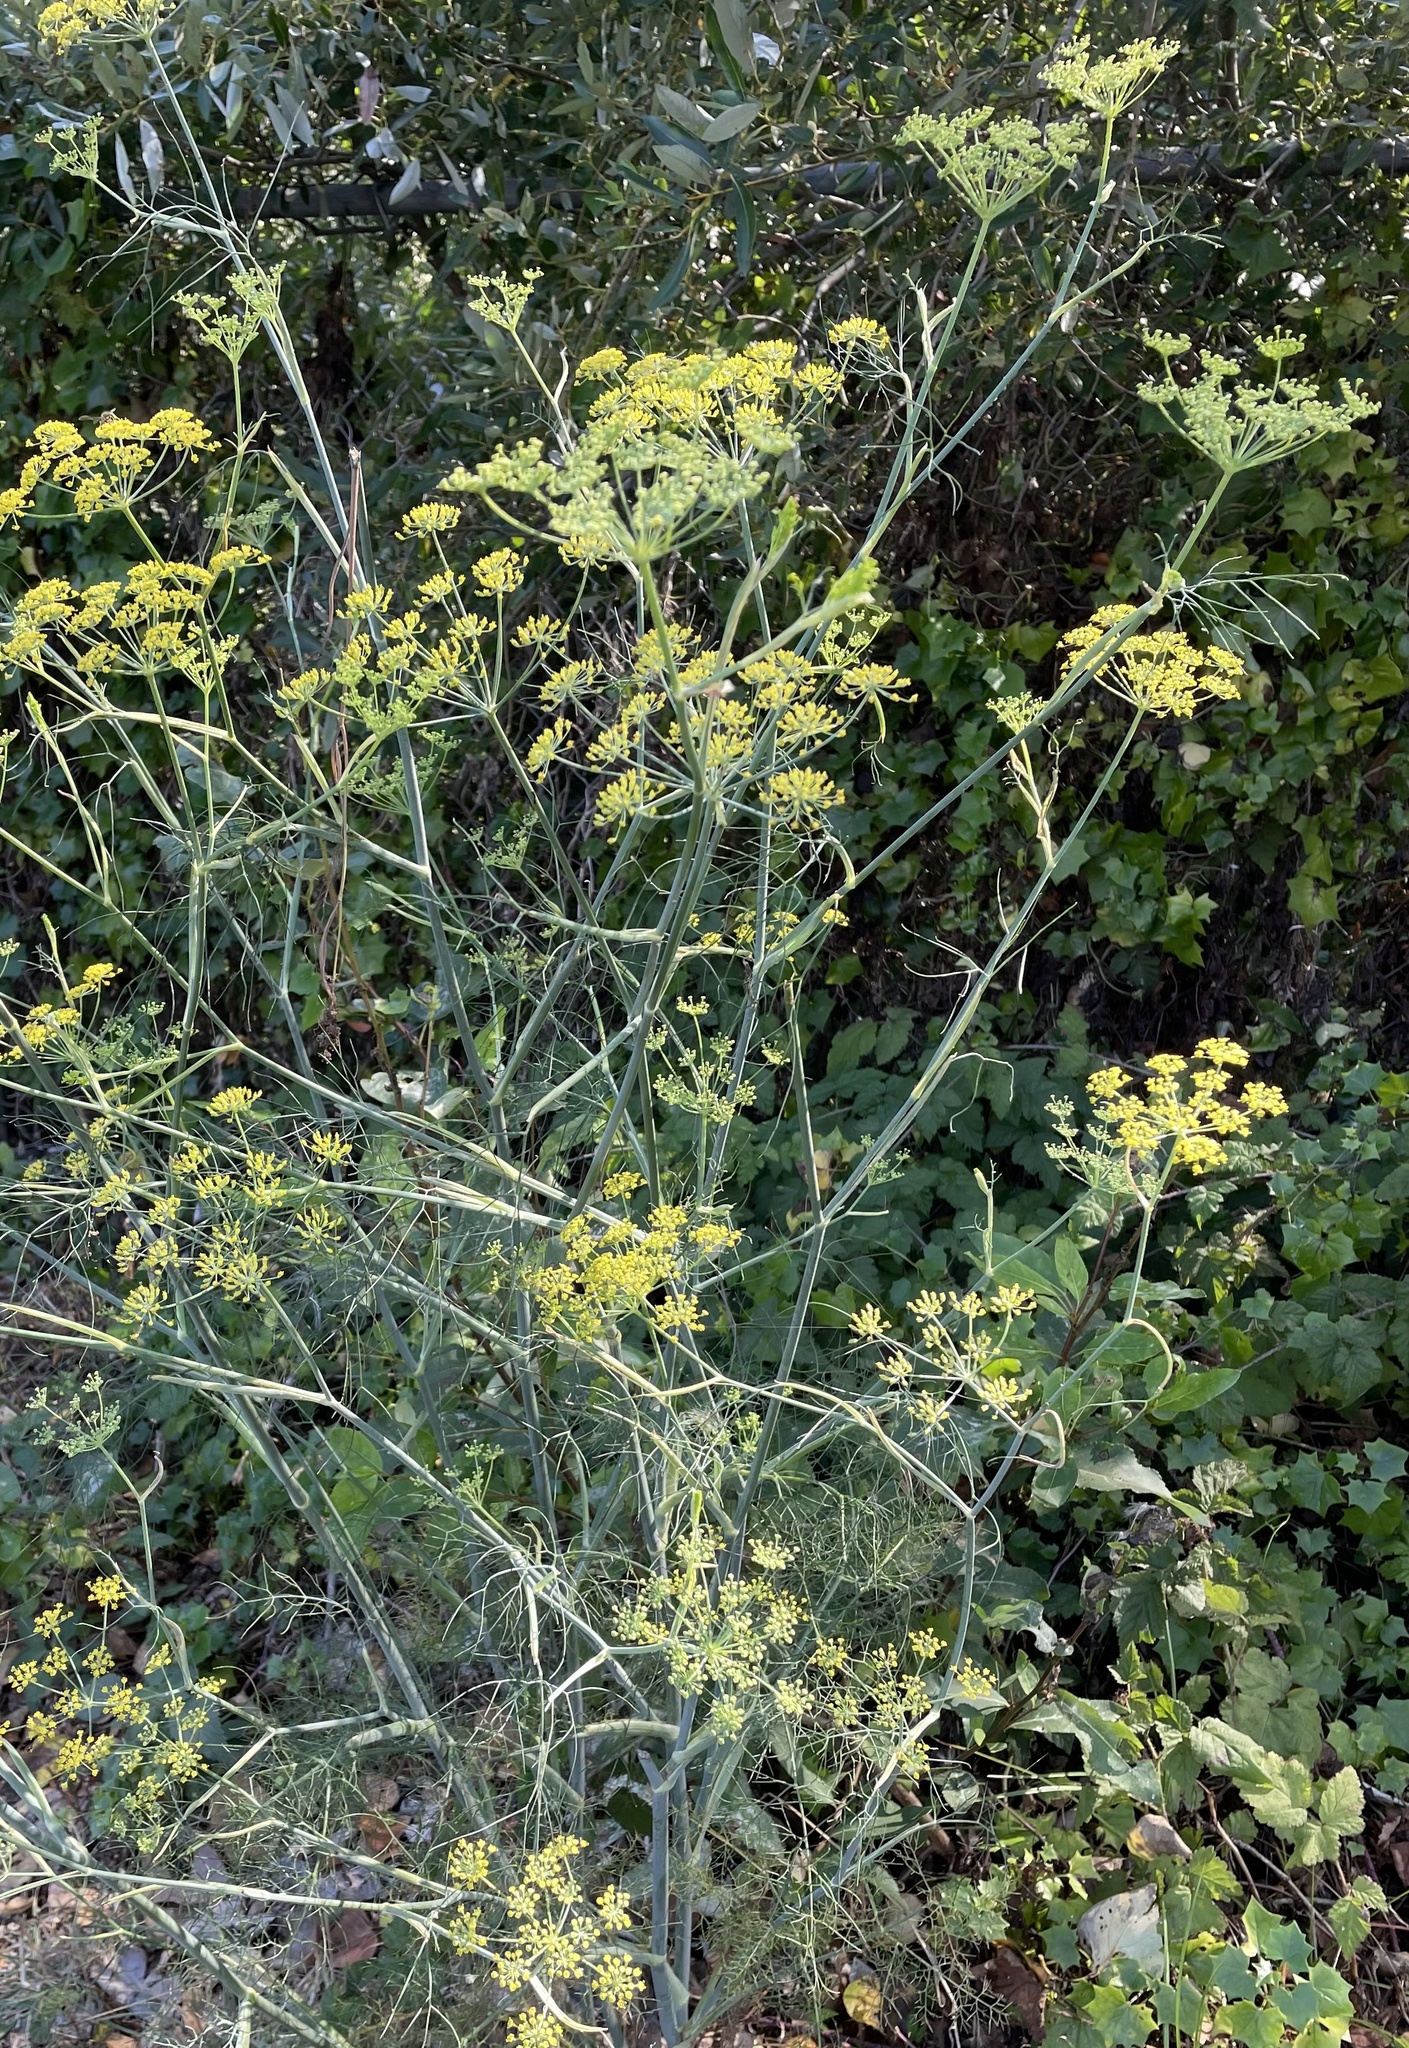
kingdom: Plantae
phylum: Tracheophyta
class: Magnoliopsida
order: Apiales
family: Apiaceae
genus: Foeniculum
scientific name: Foeniculum vulgare
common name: Fennel
